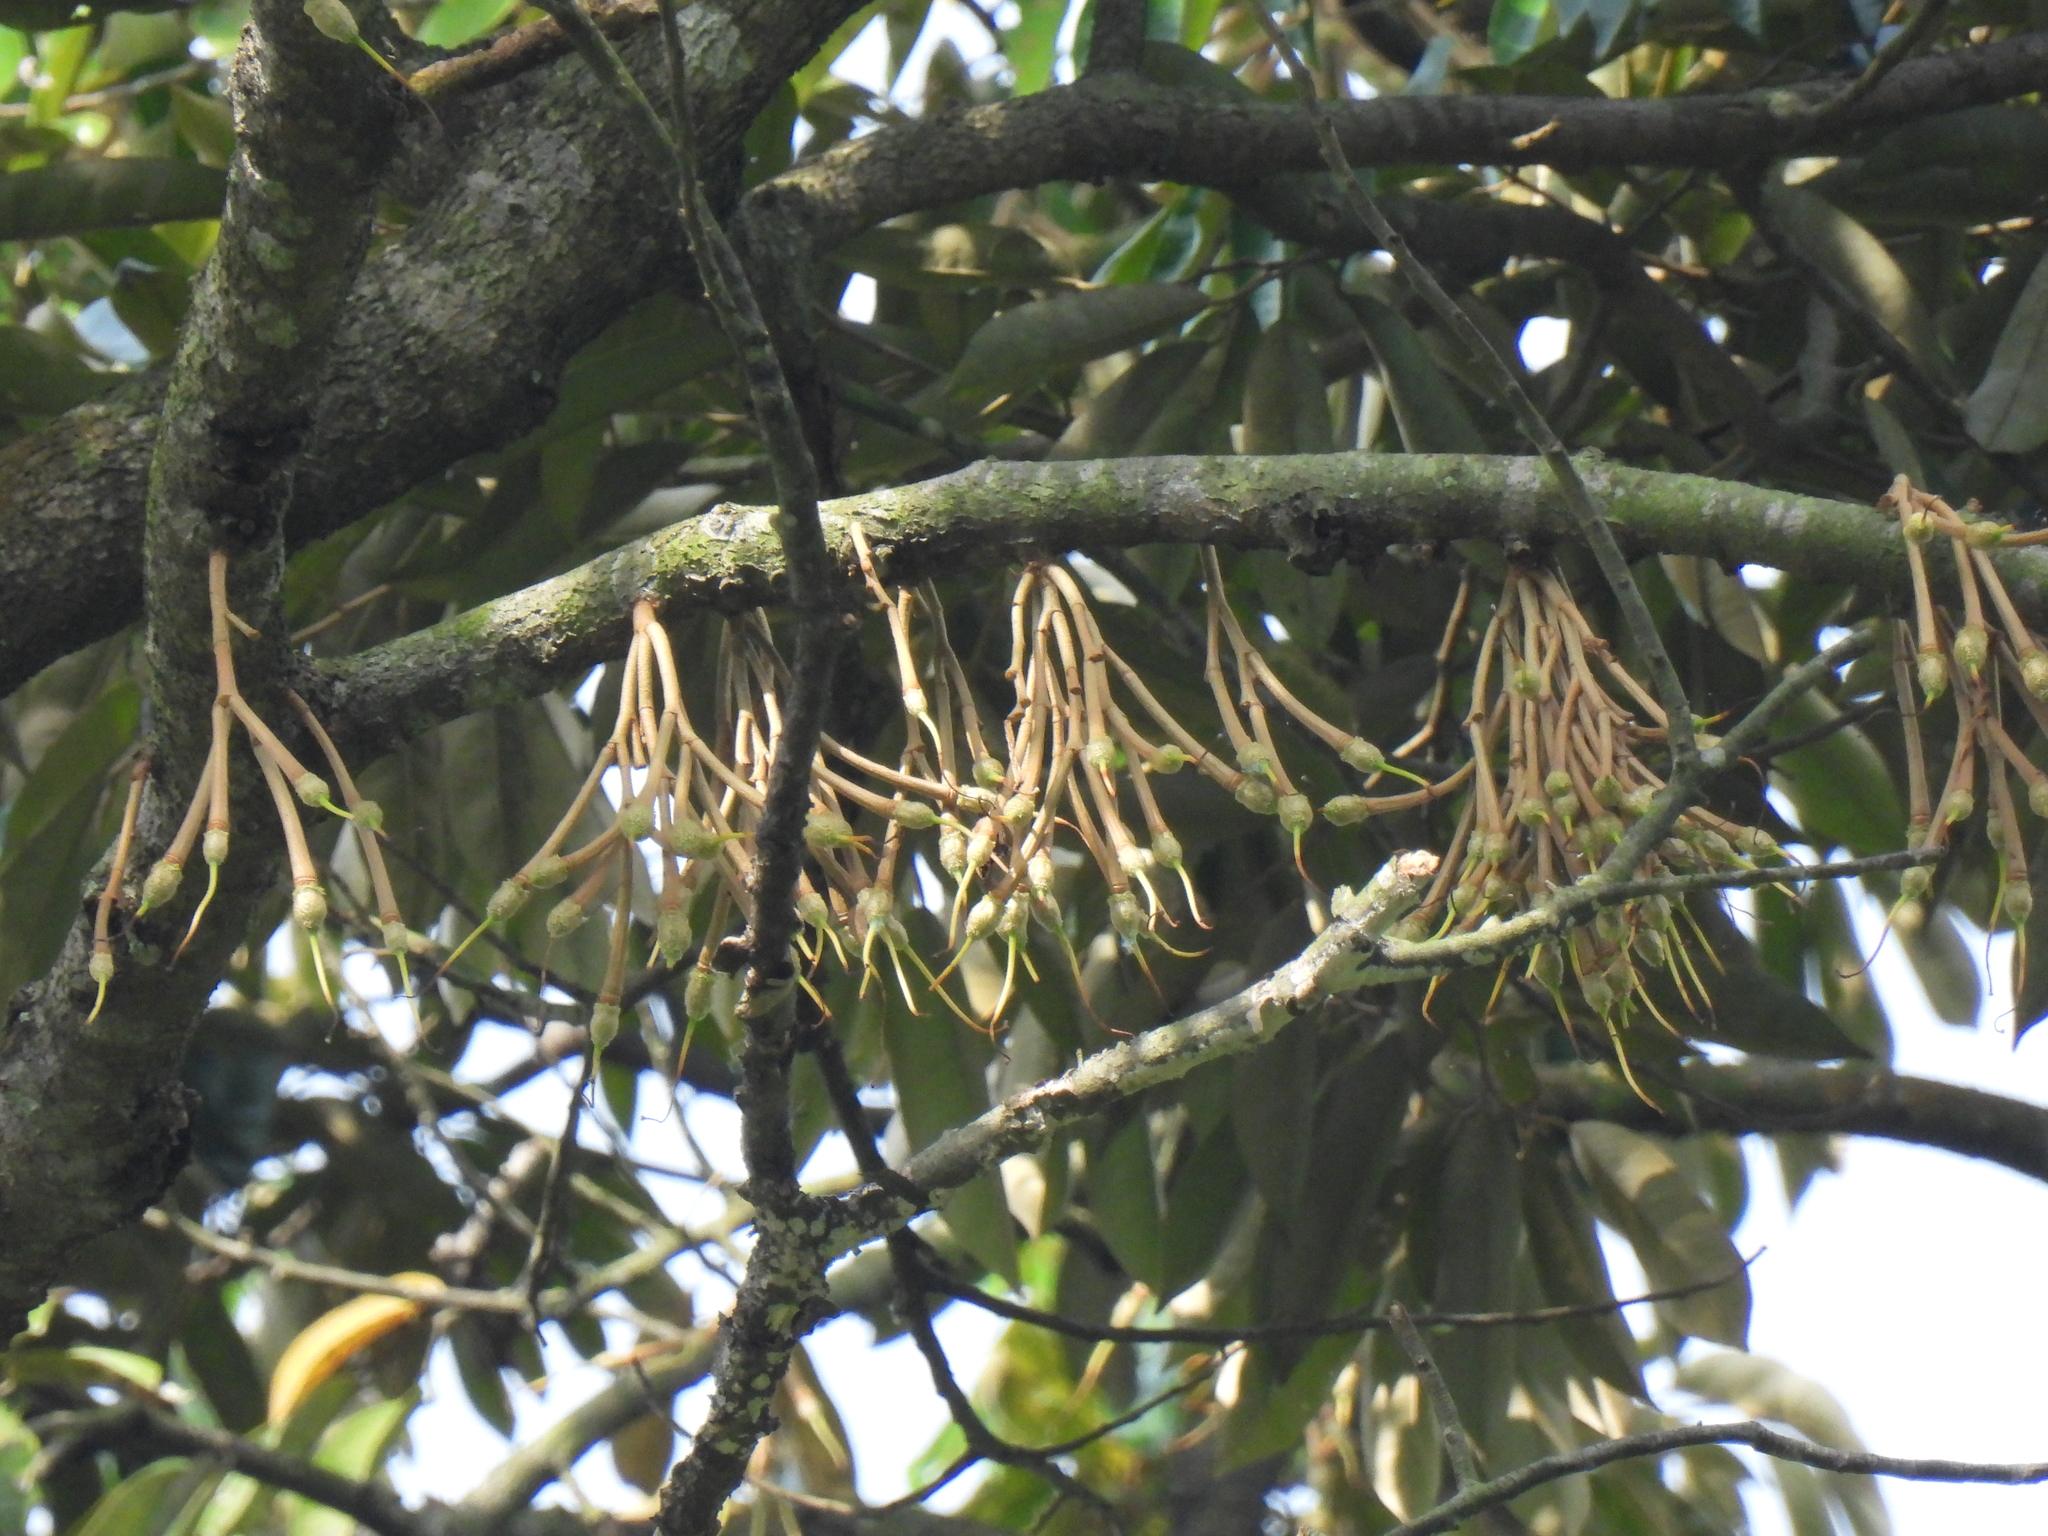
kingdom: Plantae
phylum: Tracheophyta
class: Magnoliopsida
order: Malvales
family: Malvaceae
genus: Durio
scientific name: Durio zibethinus
